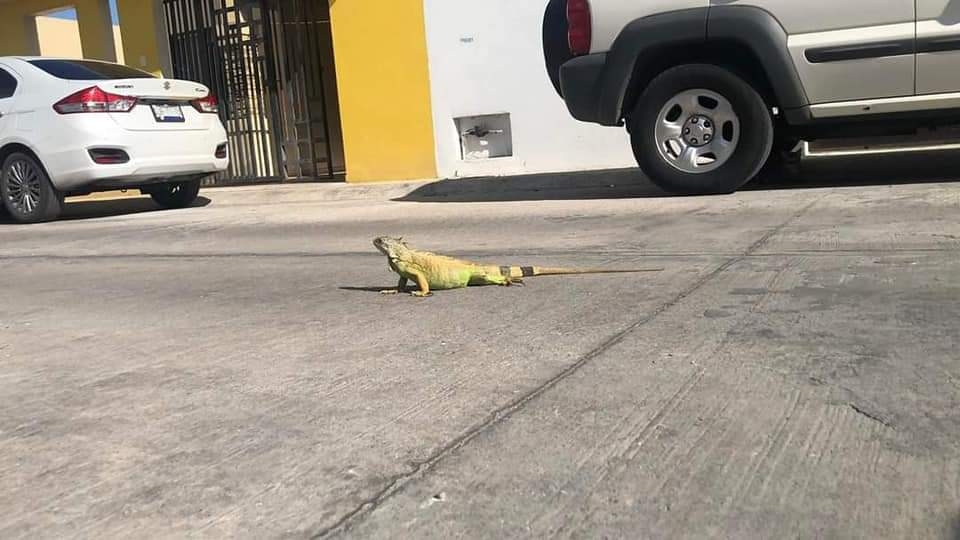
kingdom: Animalia
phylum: Chordata
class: Squamata
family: Iguanidae
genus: Iguana
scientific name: Iguana iguana
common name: Green iguana
